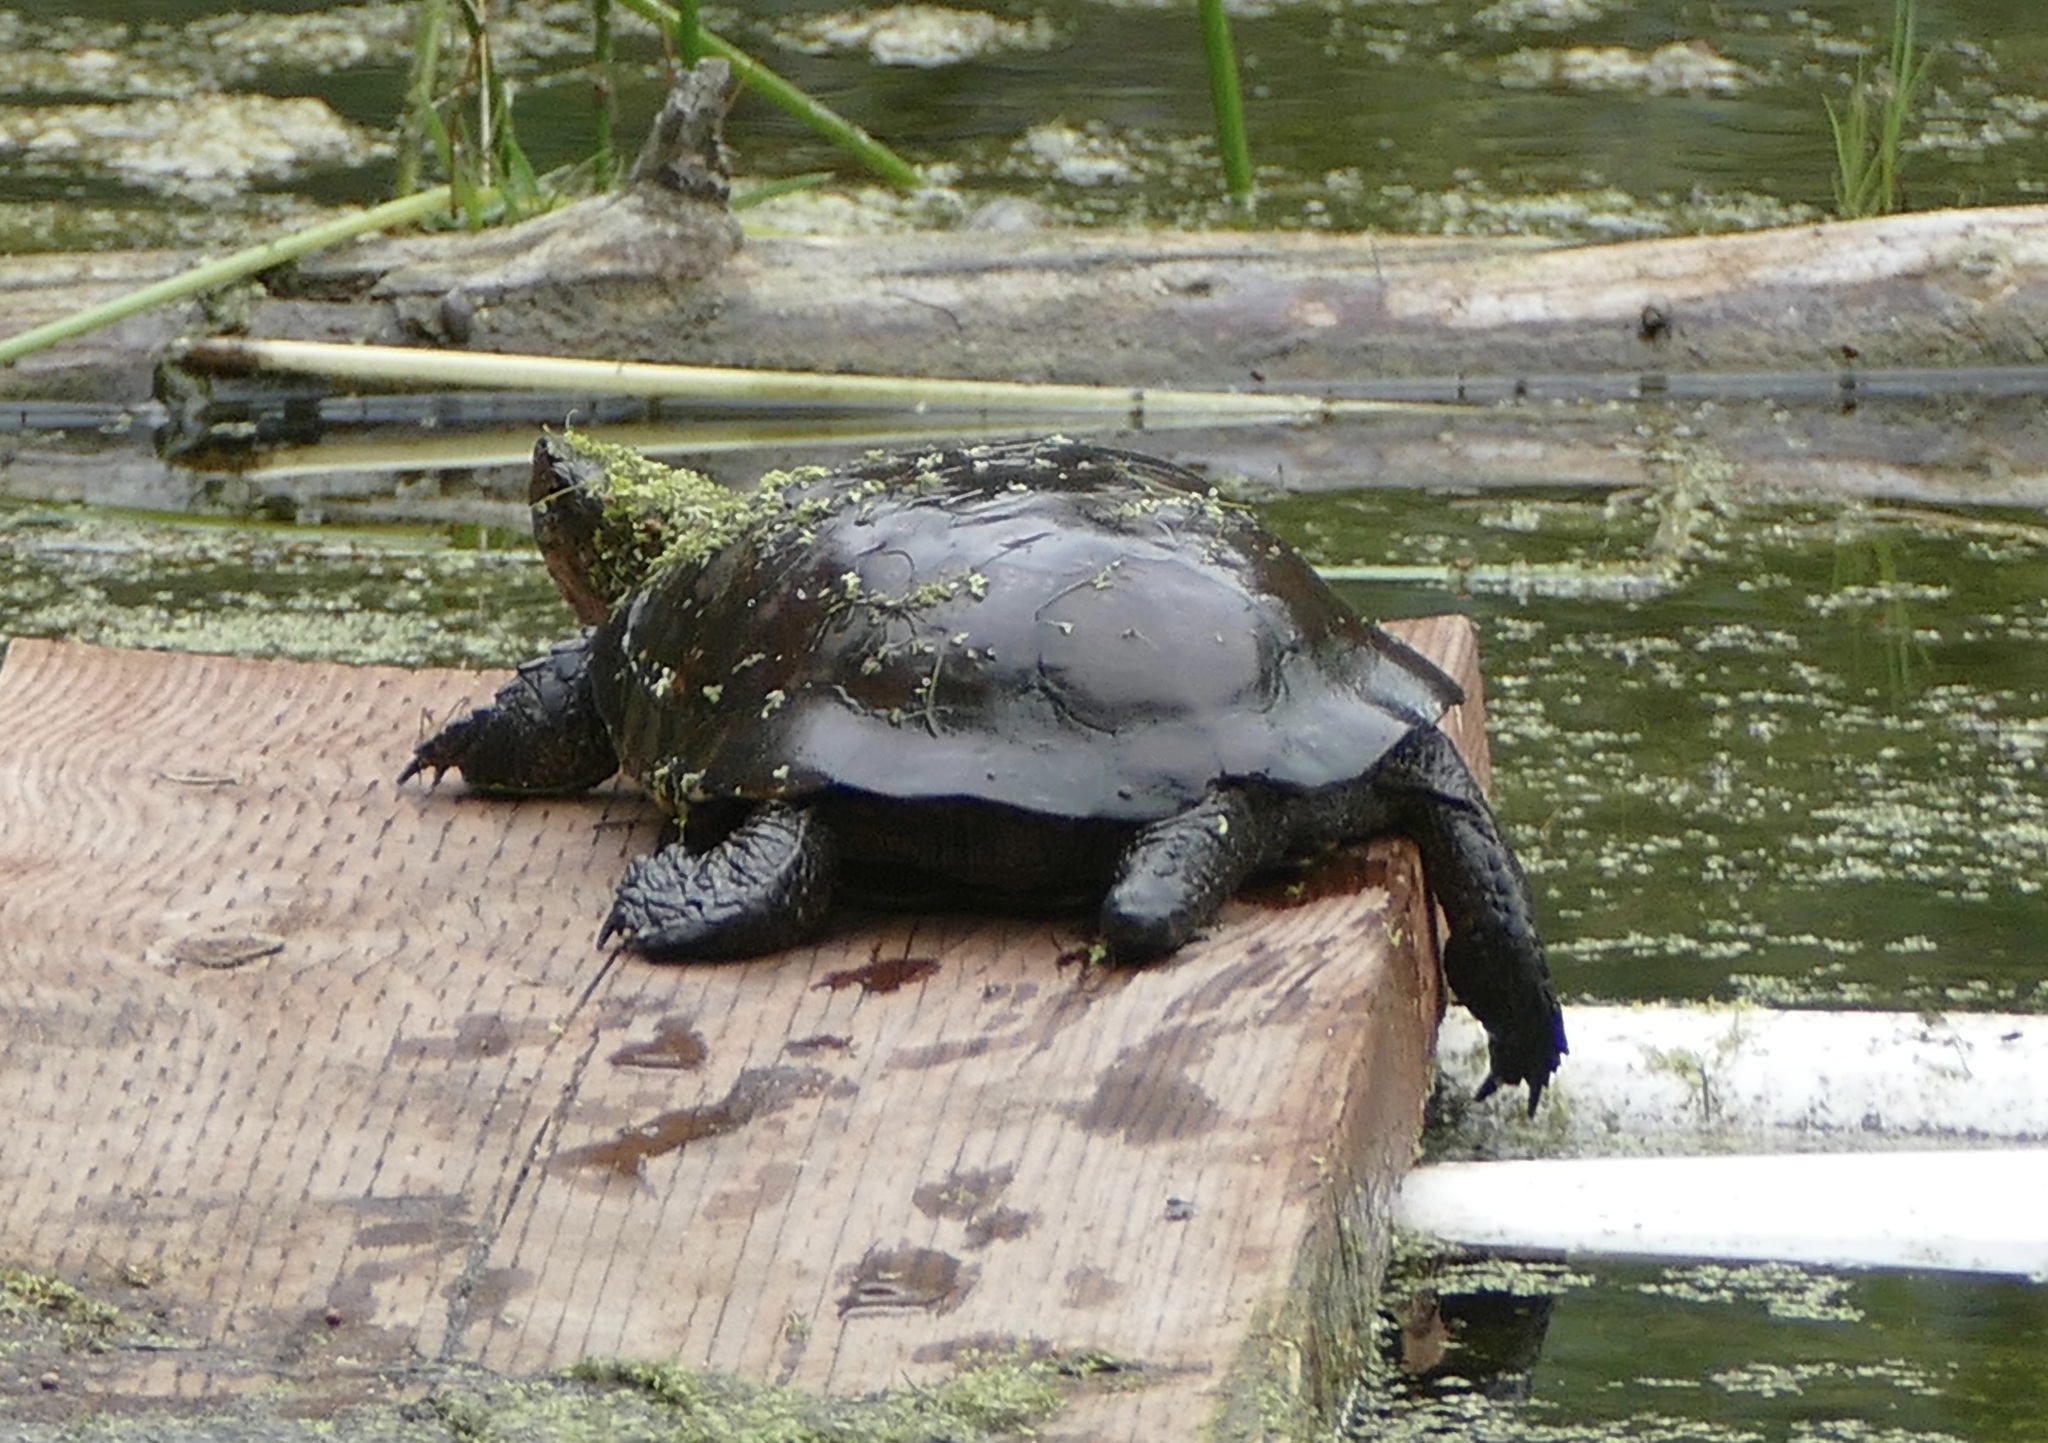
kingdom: Animalia
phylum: Chordata
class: Testudines
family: Emydidae
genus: Actinemys
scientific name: Actinemys marmorata
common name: Western pond turtle
